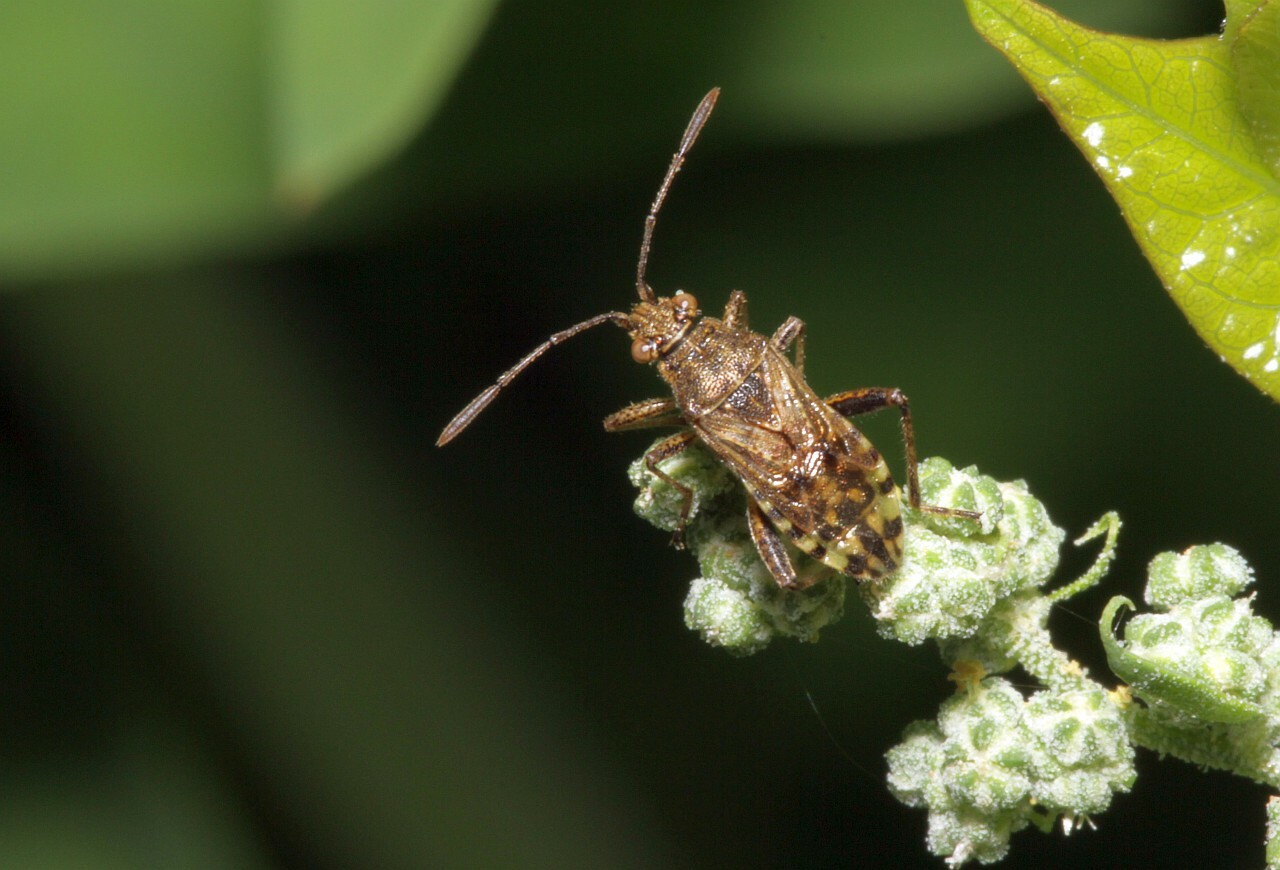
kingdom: Animalia
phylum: Arthropoda
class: Insecta
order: Hemiptera
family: Rhopalidae
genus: Stictopleurus
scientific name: Stictopleurus punctatonervosus
